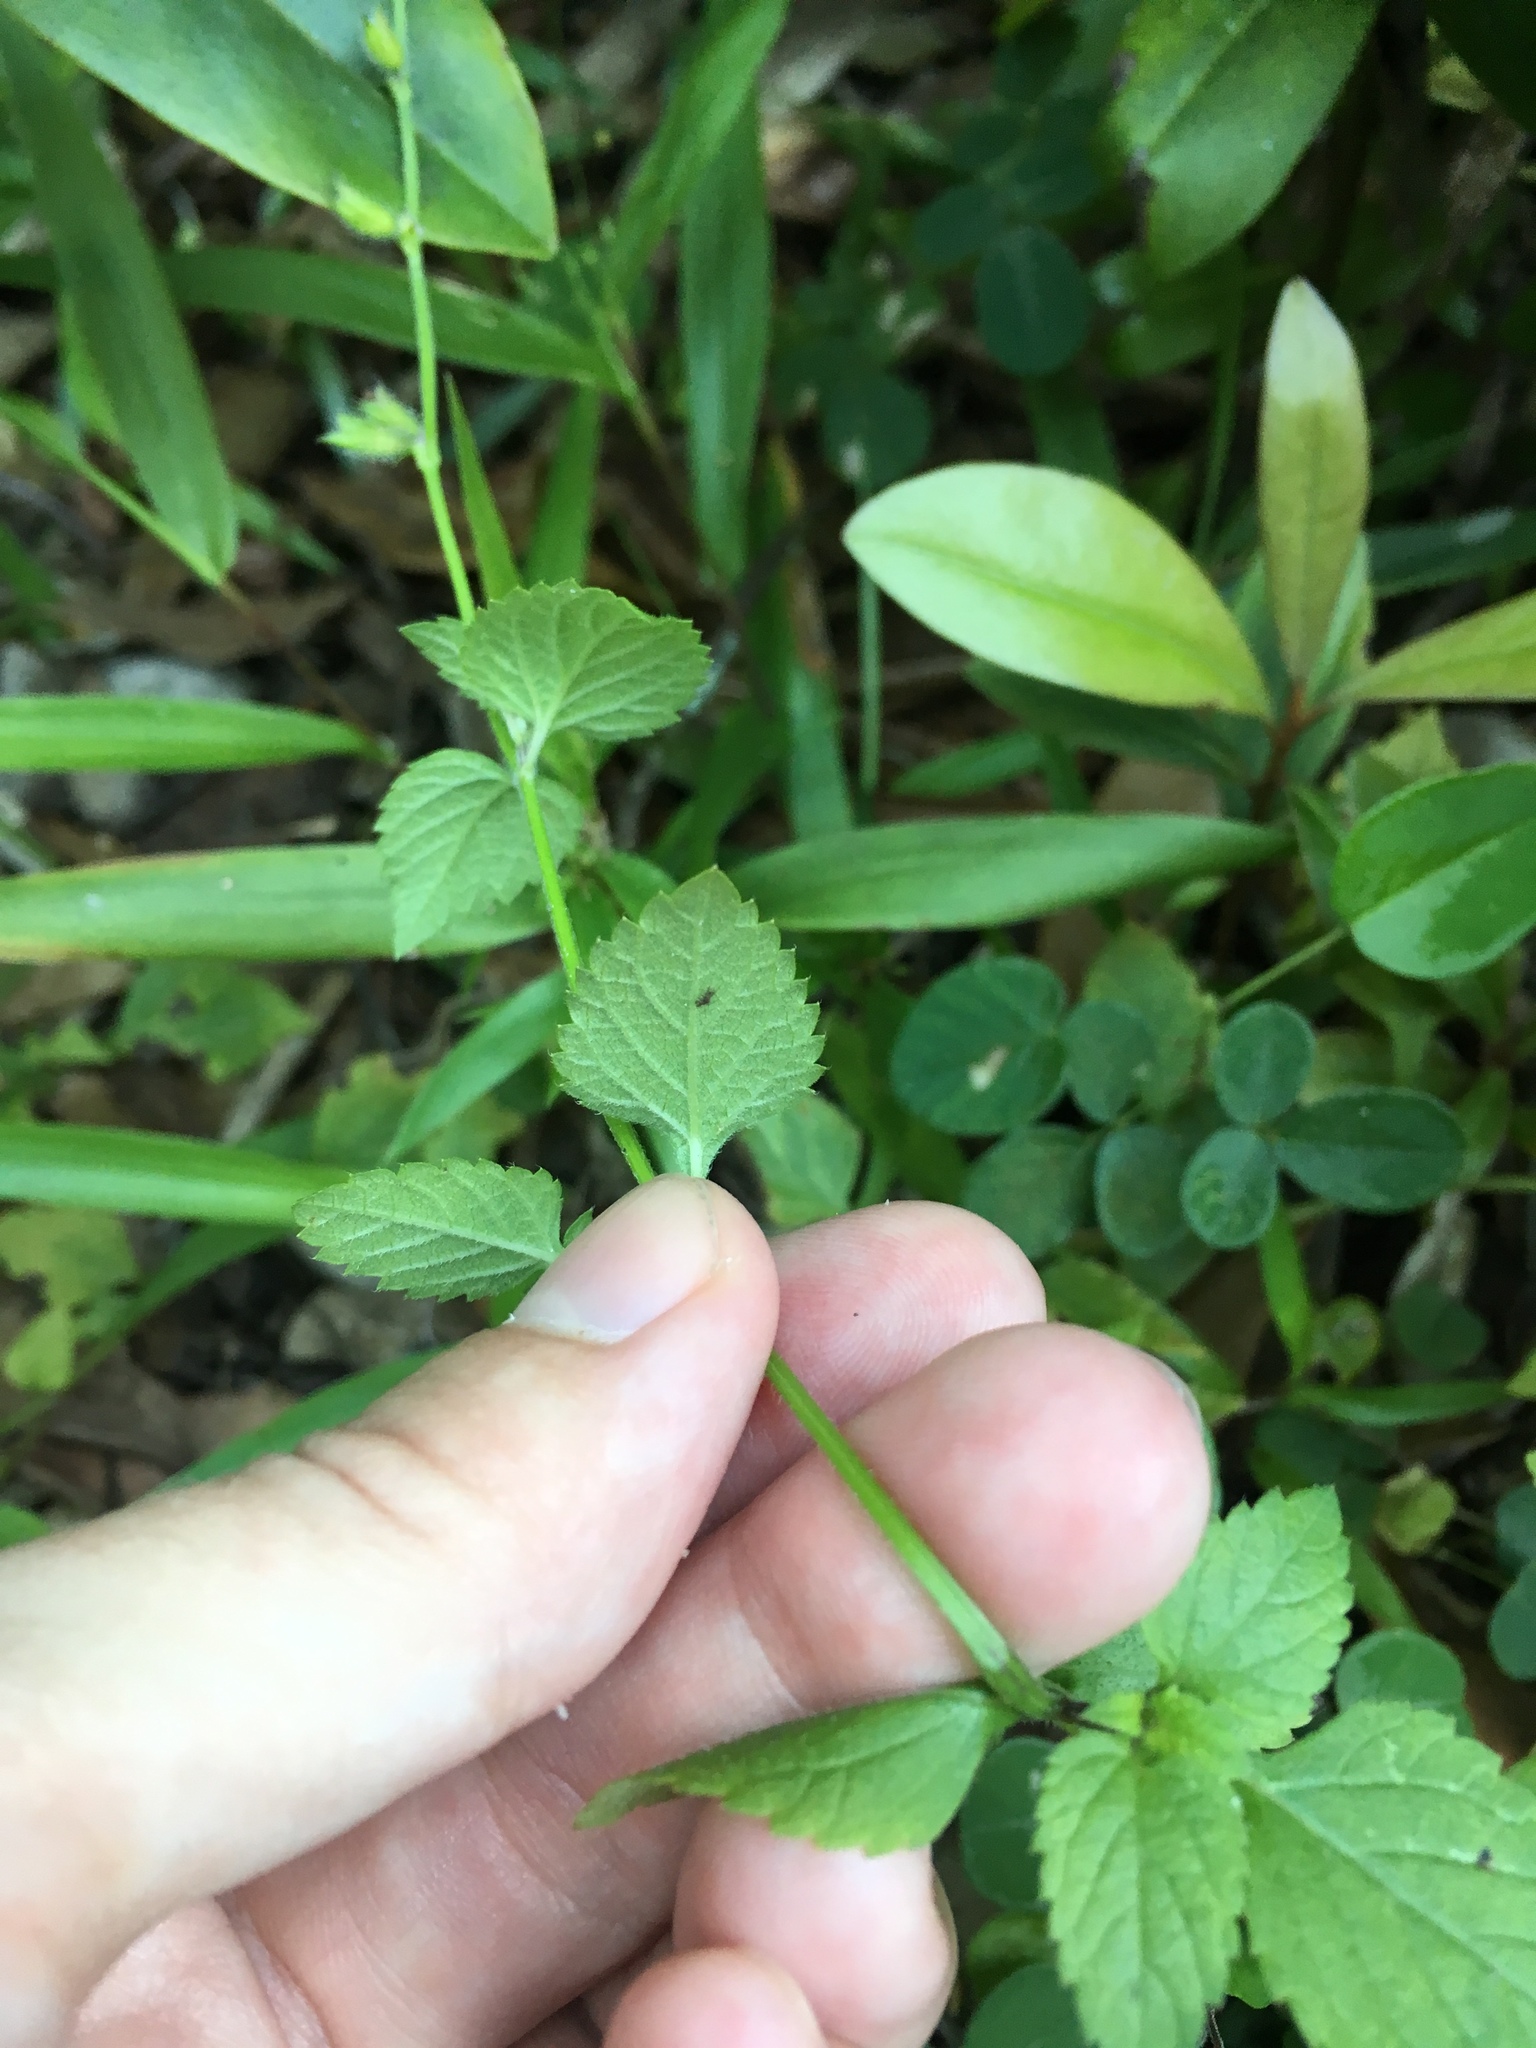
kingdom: Plantae
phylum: Tracheophyta
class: Magnoliopsida
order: Lamiales
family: Lamiaceae
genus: Salvia
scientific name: Salvia misella
